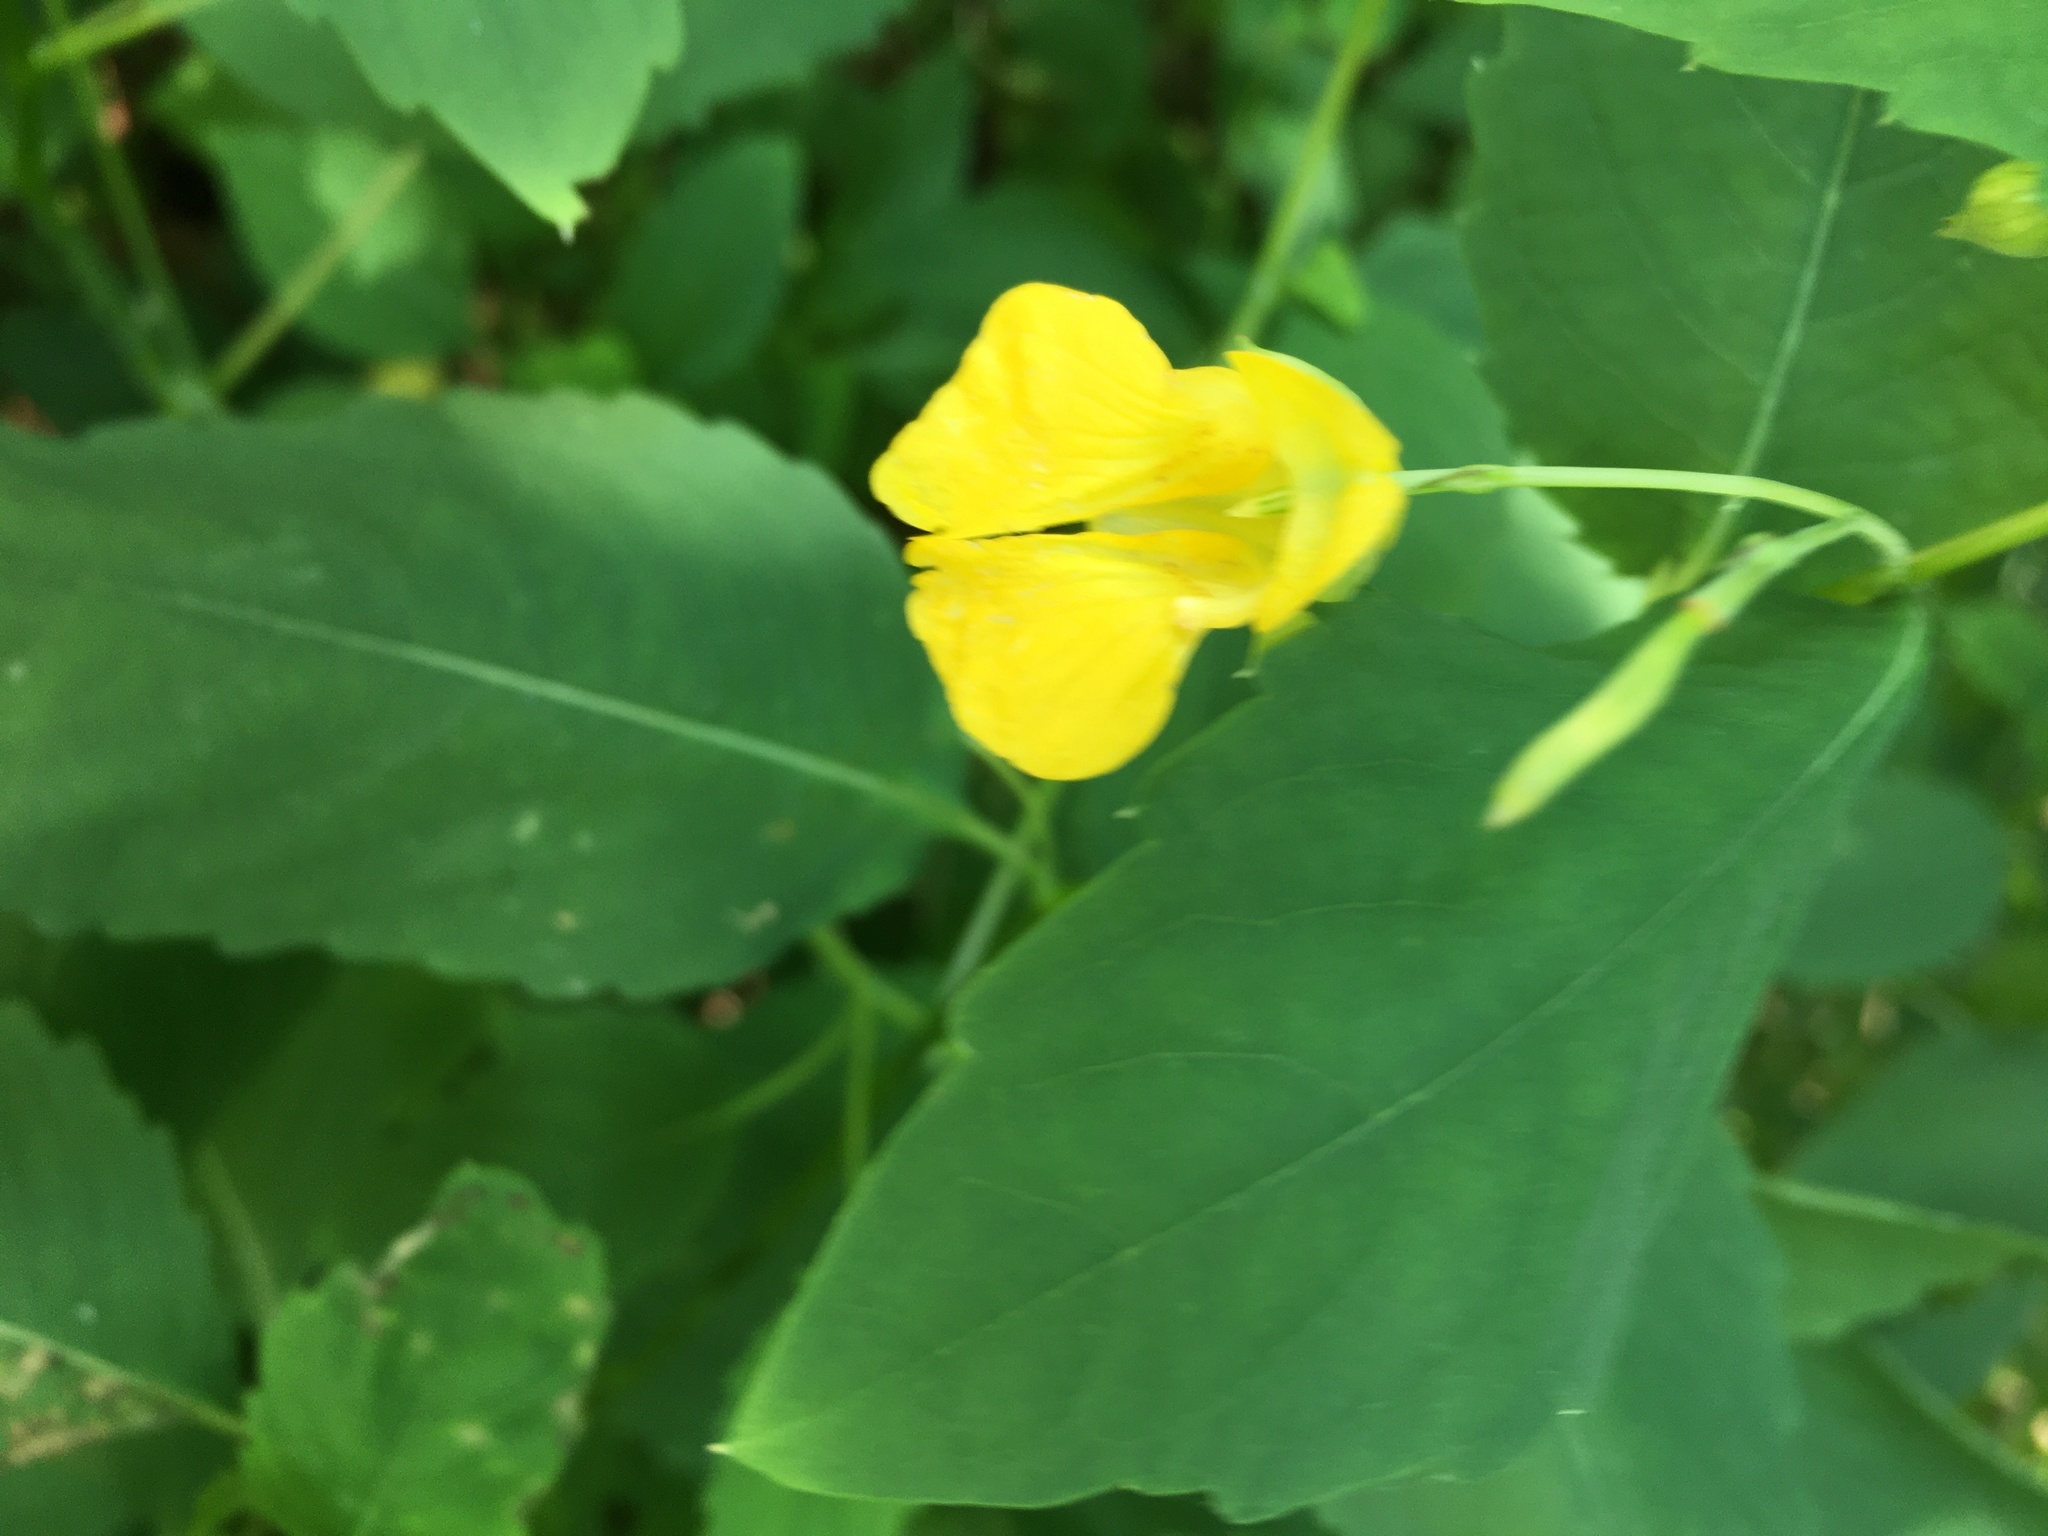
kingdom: Plantae
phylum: Tracheophyta
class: Magnoliopsida
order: Ericales
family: Balsaminaceae
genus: Impatiens
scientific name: Impatiens pallida
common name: Pale snapweed
